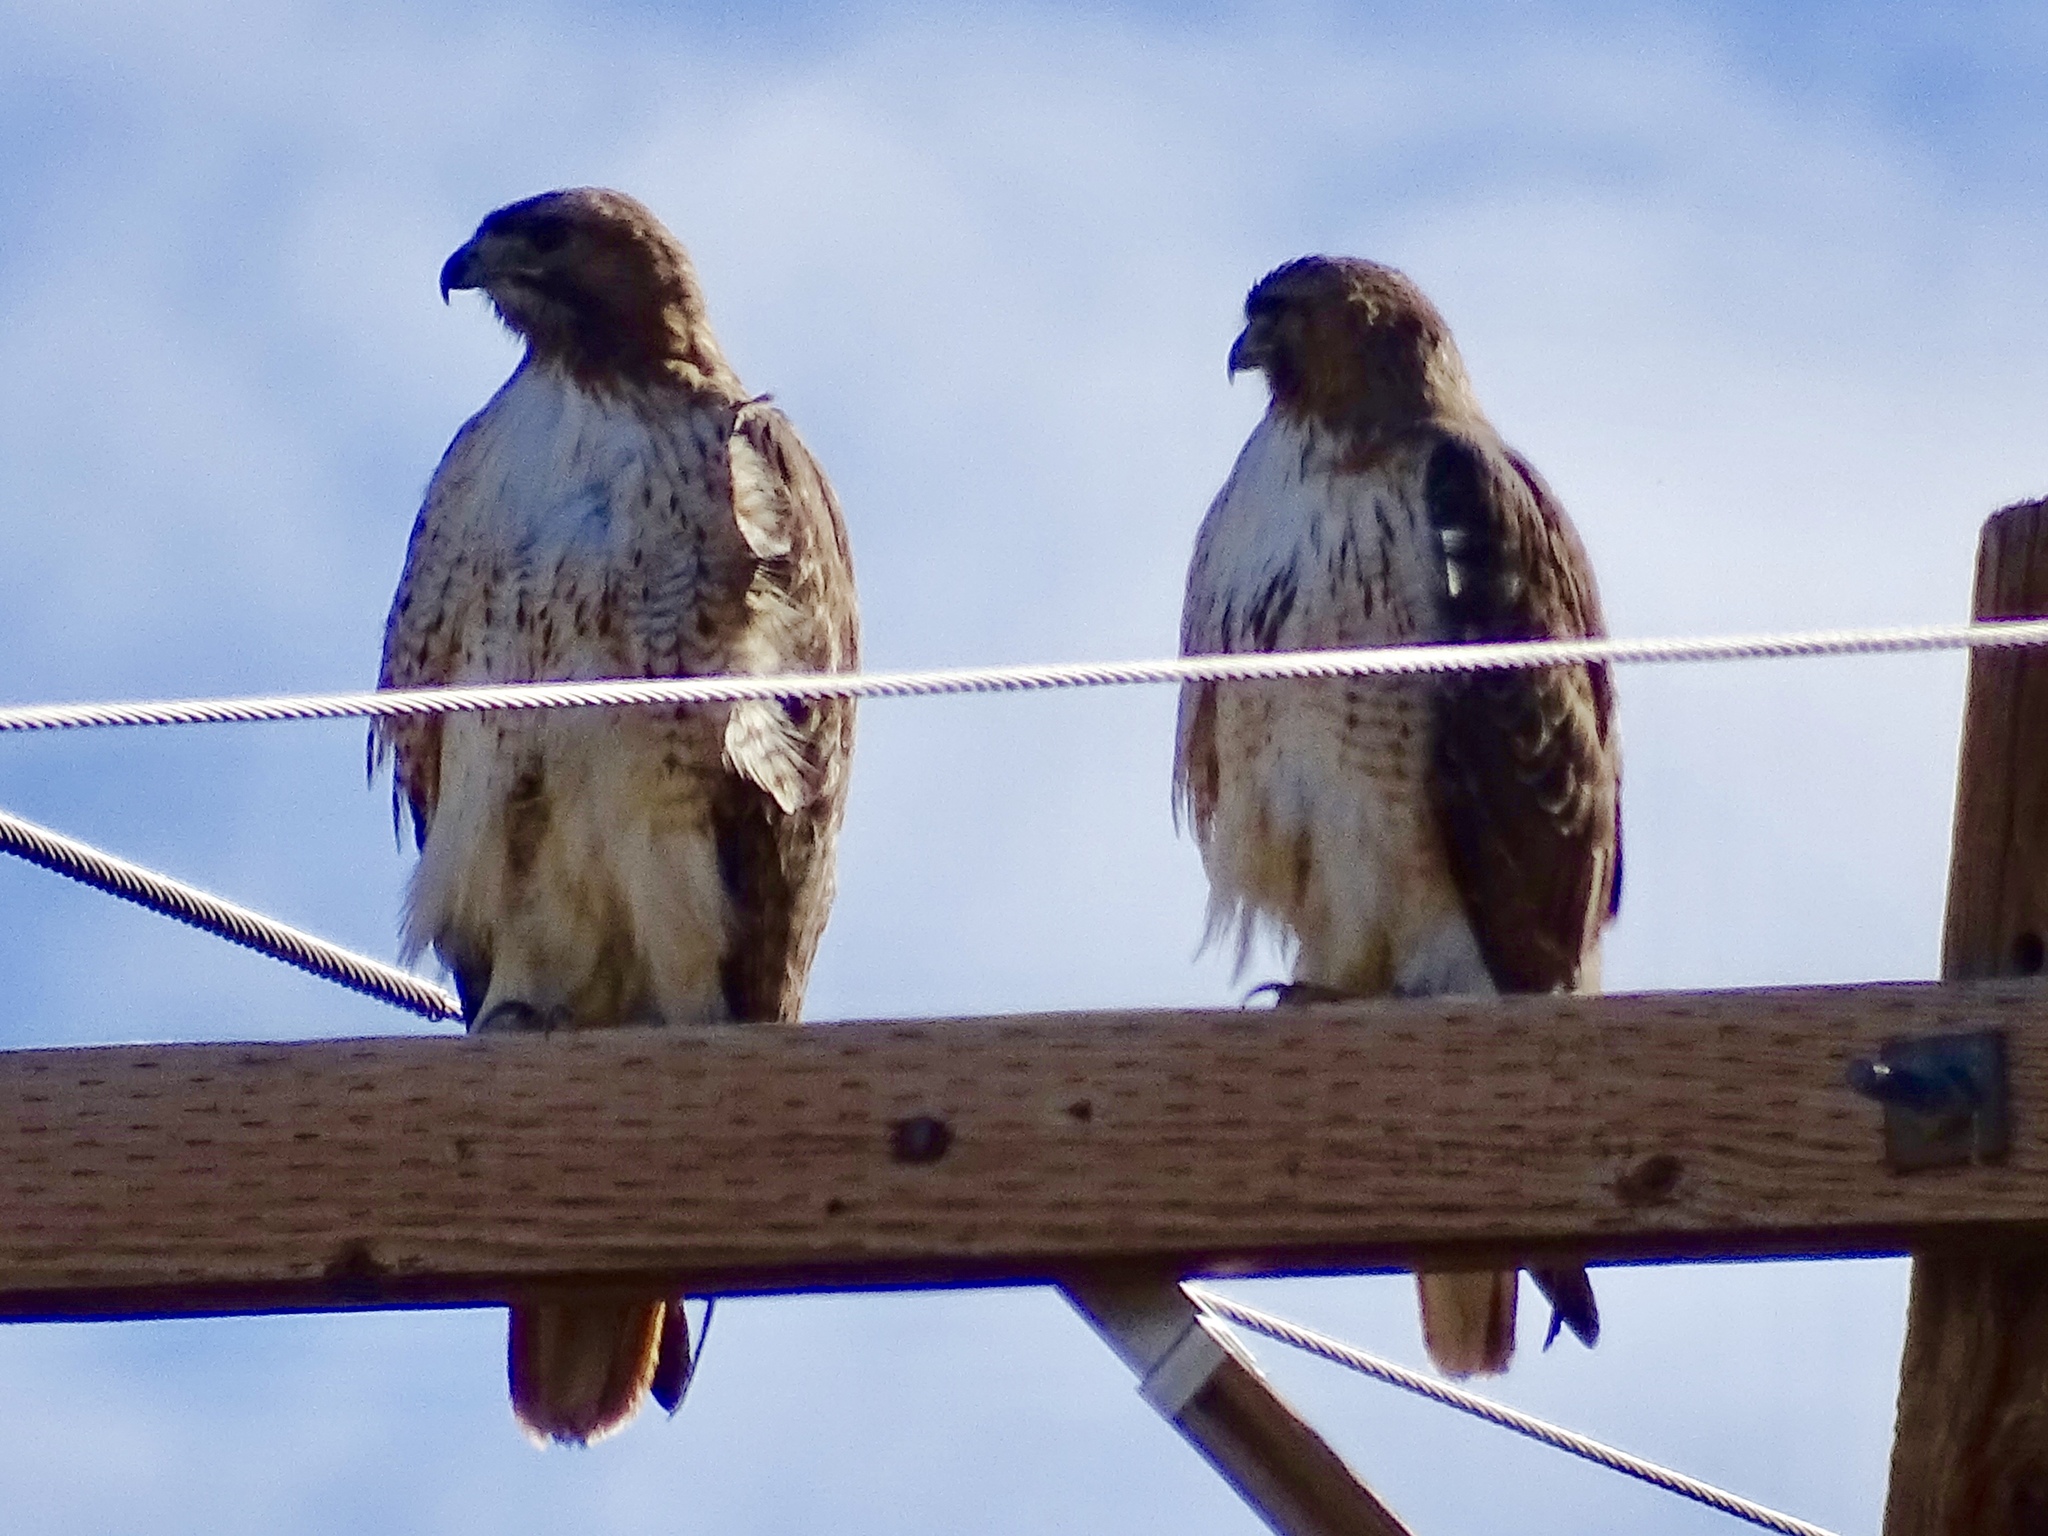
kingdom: Animalia
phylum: Chordata
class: Aves
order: Accipitriformes
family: Accipitridae
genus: Buteo
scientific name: Buteo jamaicensis
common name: Red-tailed hawk
